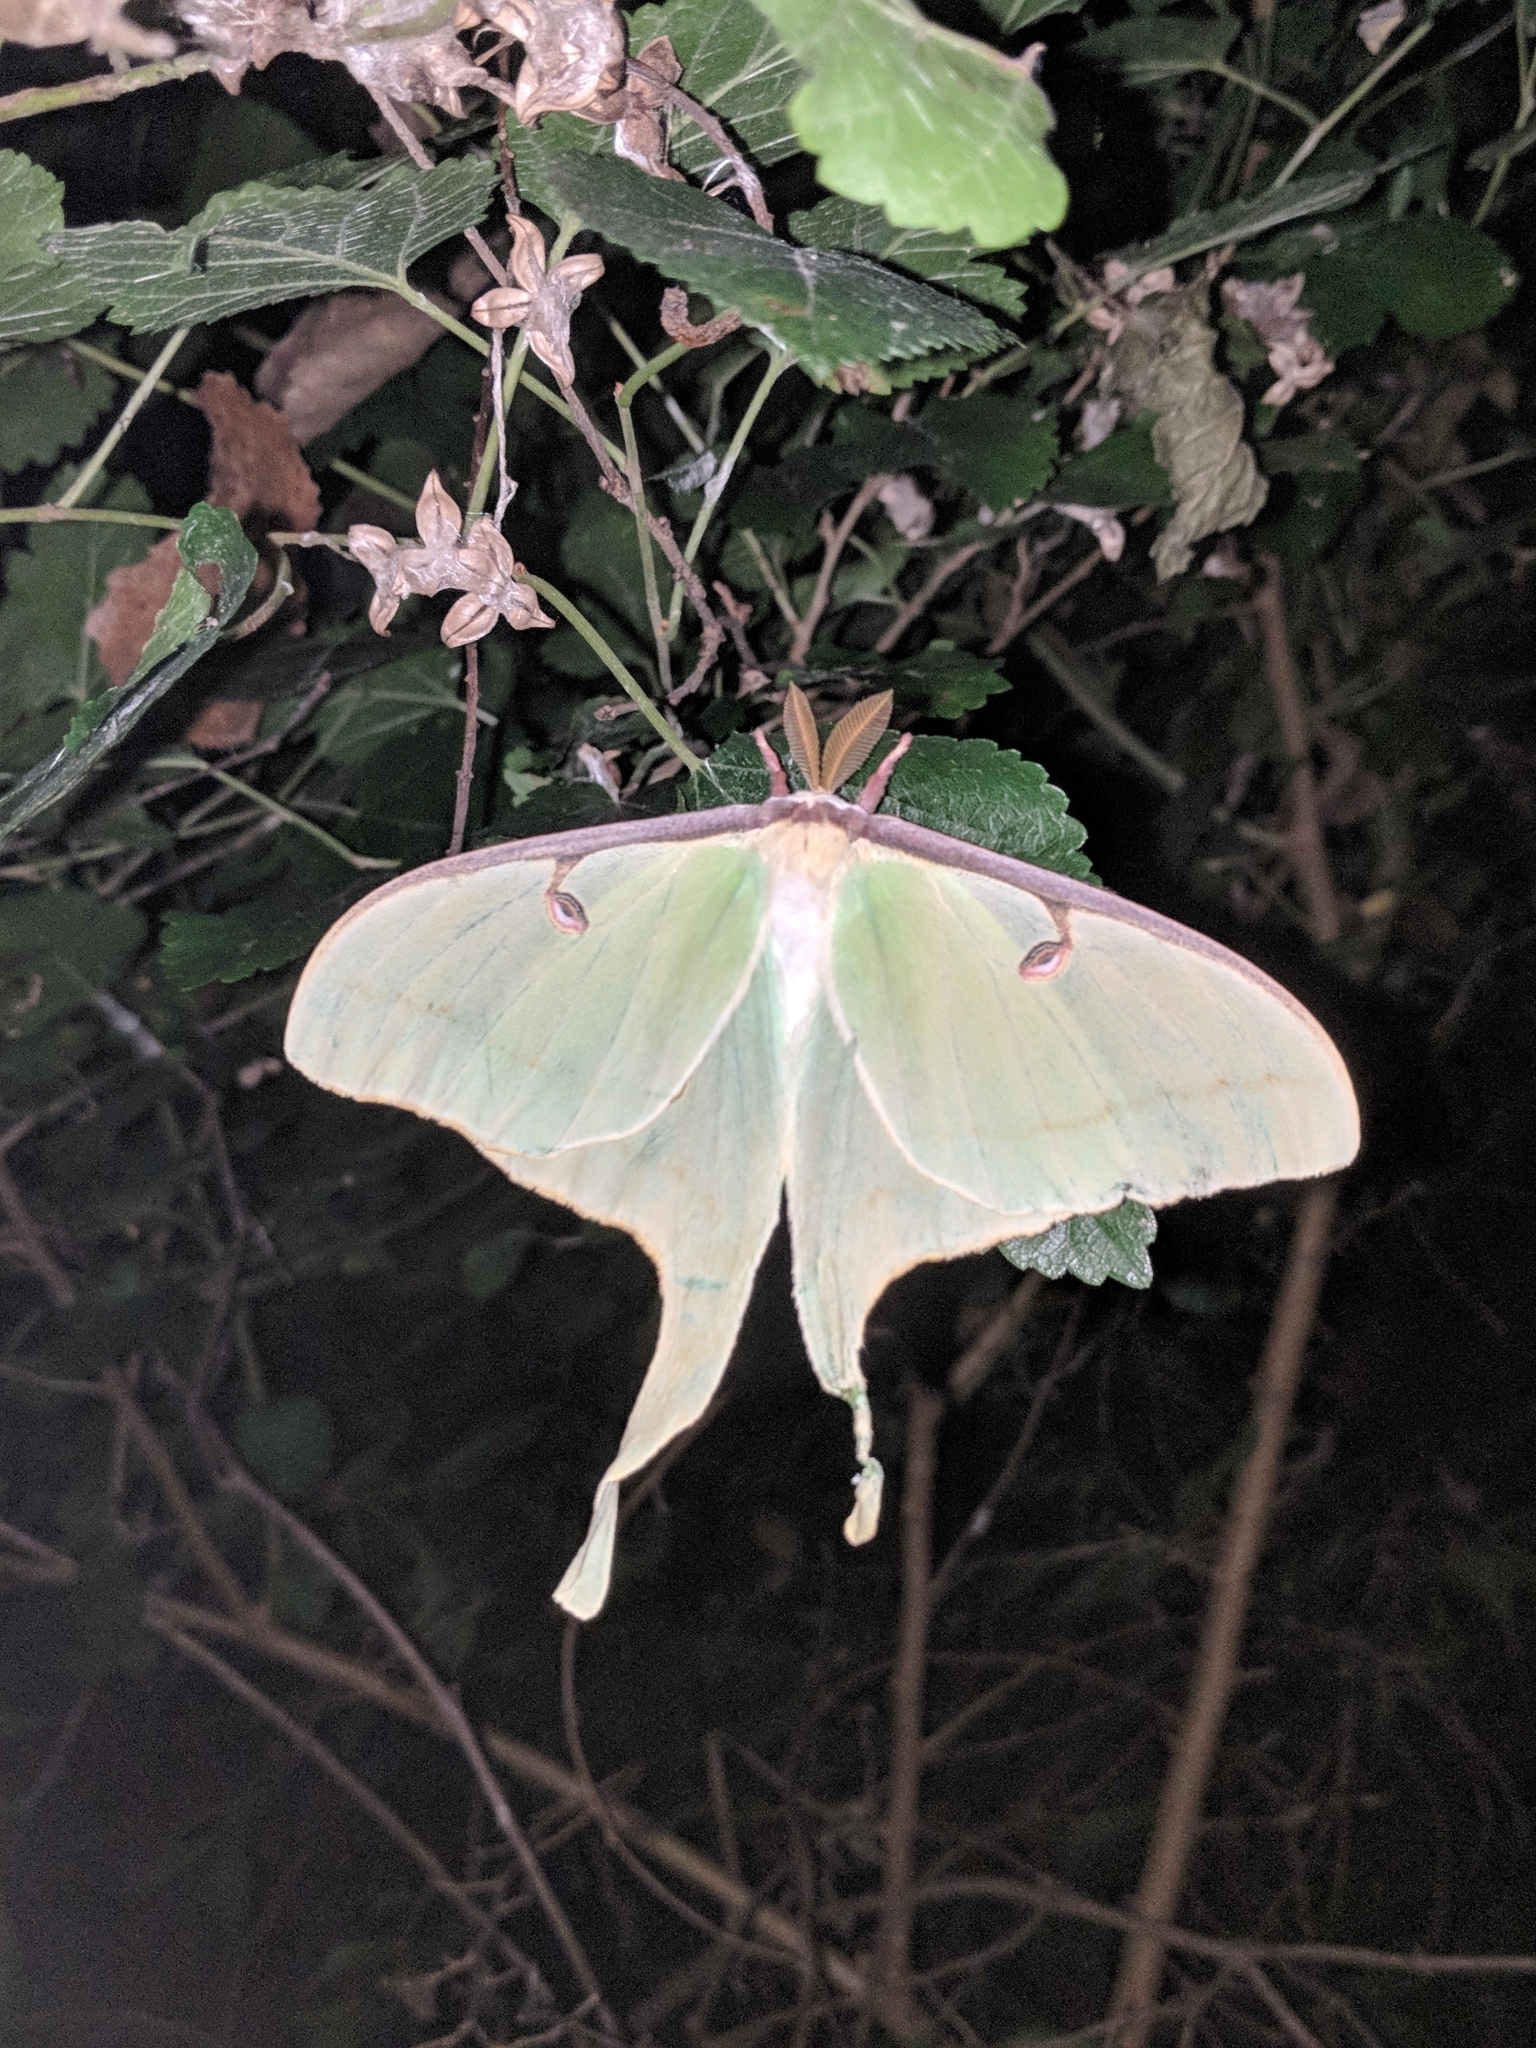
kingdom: Animalia
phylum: Arthropoda
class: Insecta
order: Lepidoptera
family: Saturniidae
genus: Actias
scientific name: Actias luna
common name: Luna moth
